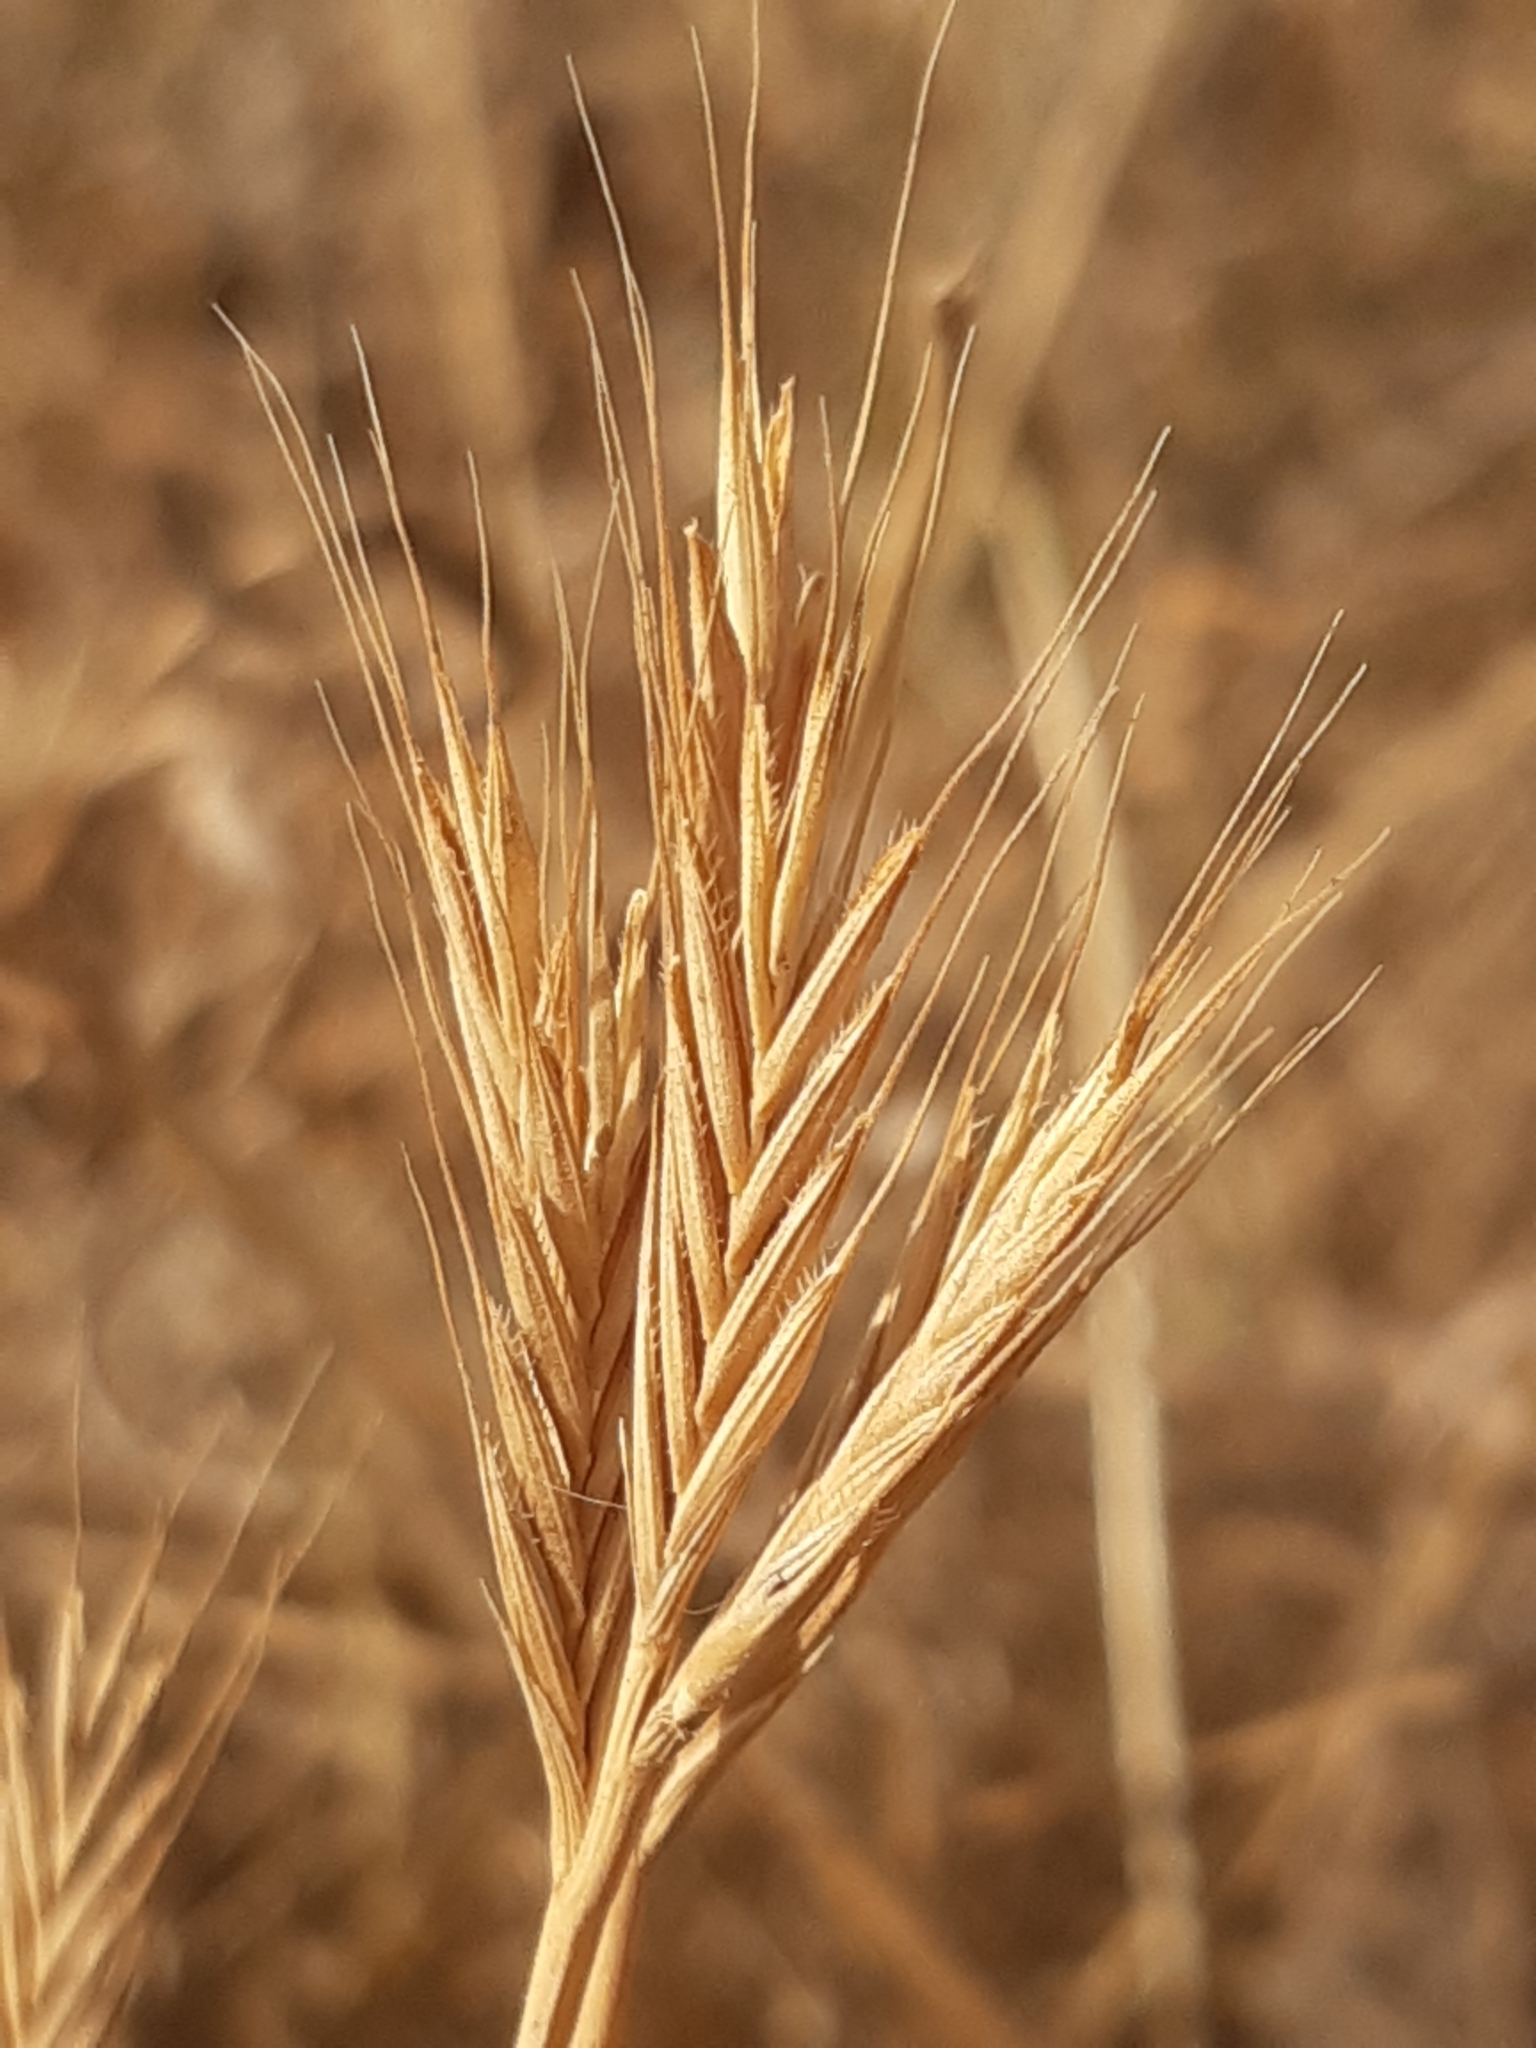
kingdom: Plantae
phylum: Tracheophyta
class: Liliopsida
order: Poales
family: Poaceae
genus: Brachypodium
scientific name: Brachypodium distachyon
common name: Stiff brome
